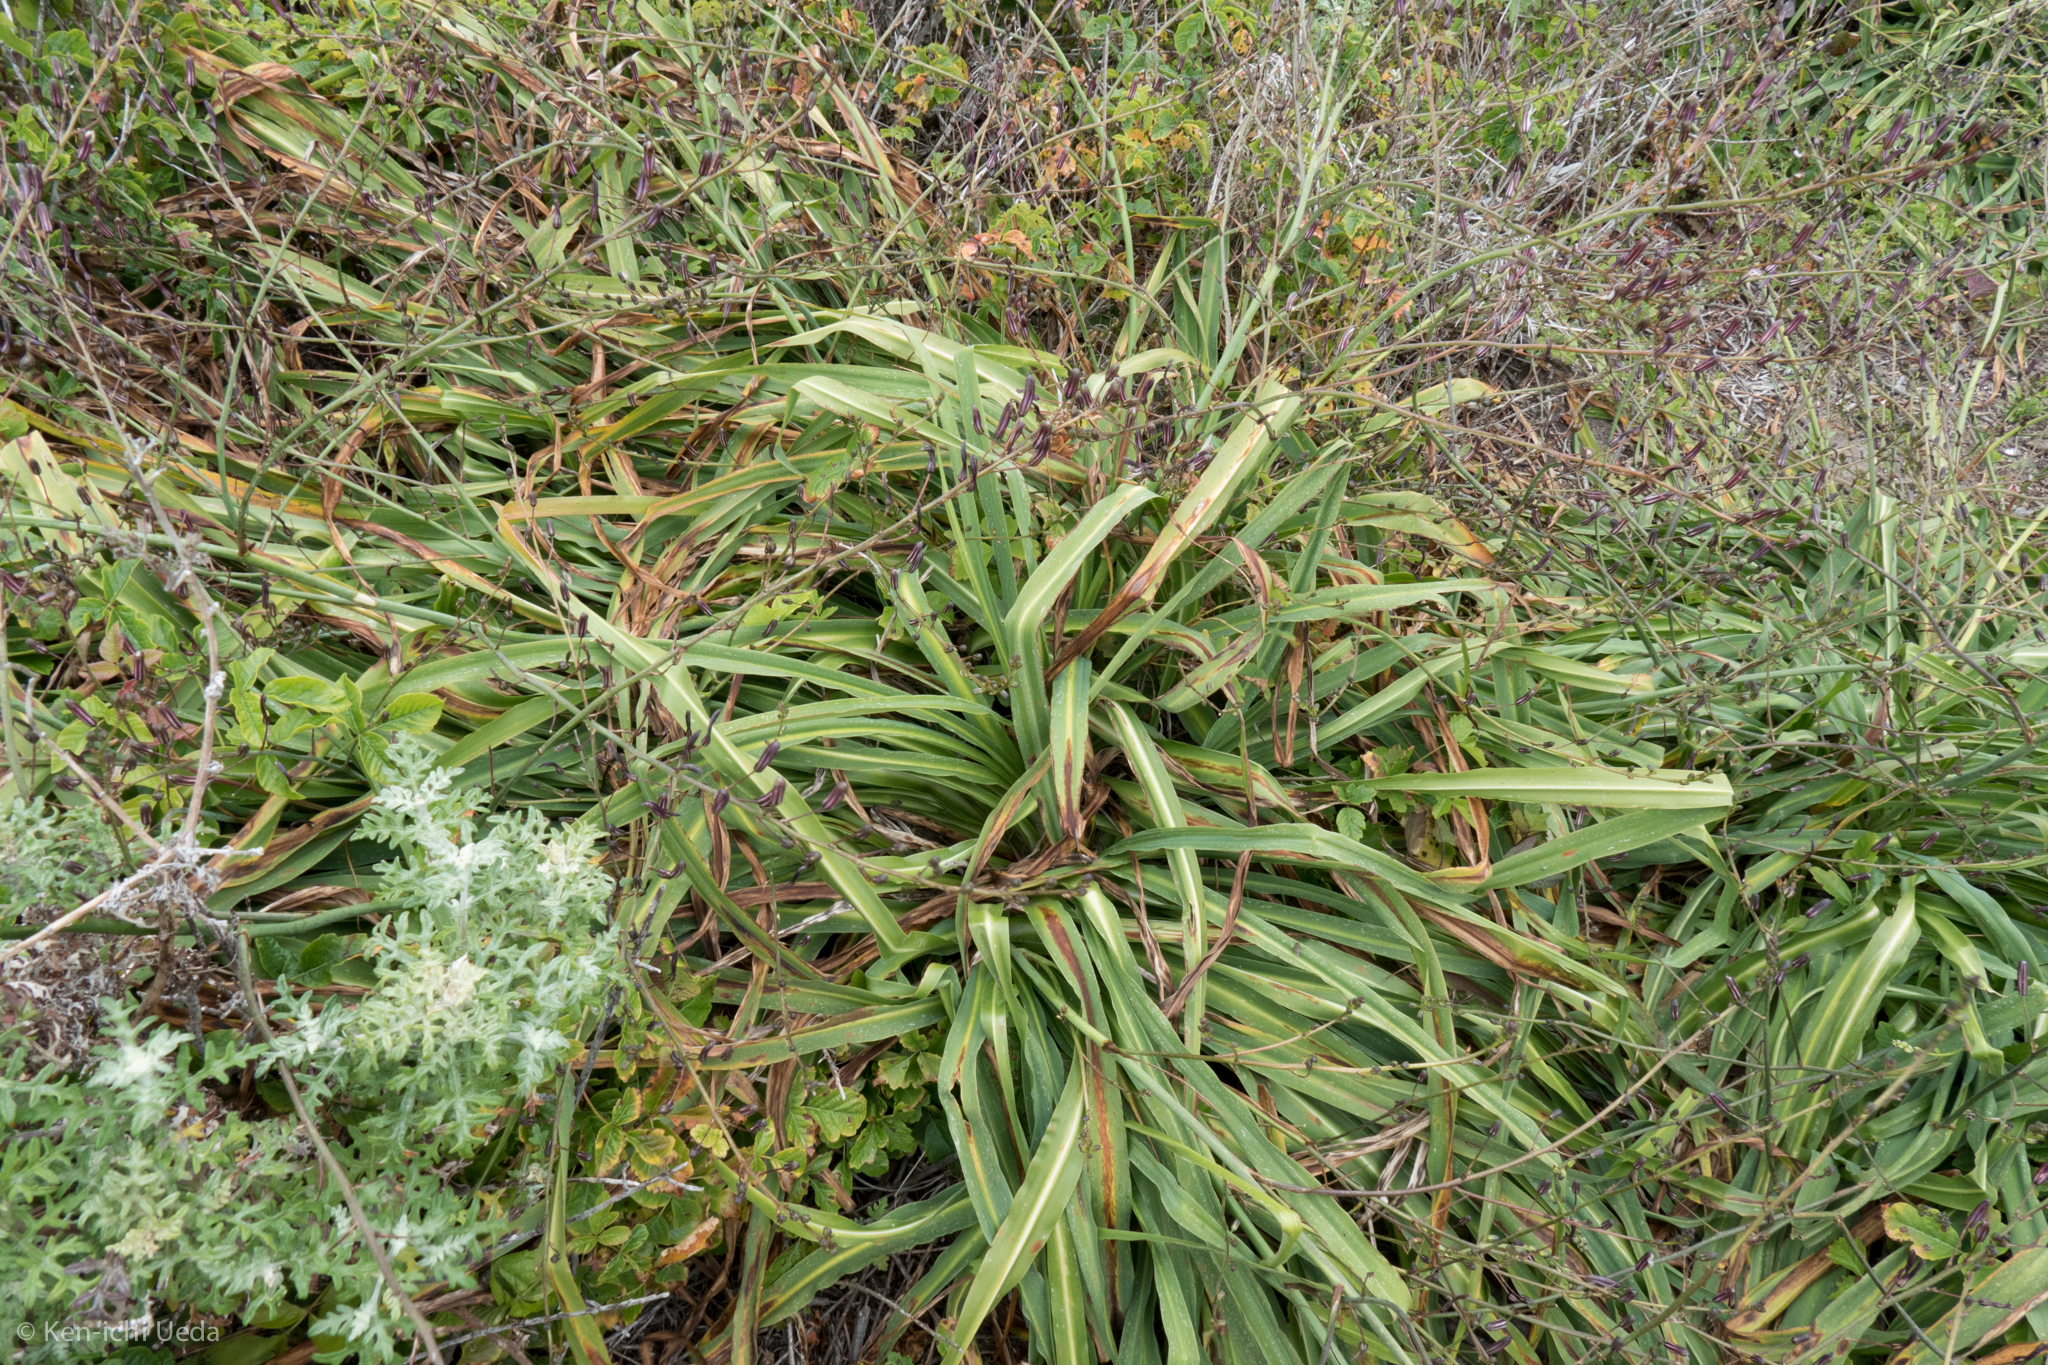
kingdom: Plantae
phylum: Tracheophyta
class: Liliopsida
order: Asparagales
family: Asparagaceae
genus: Chlorogalum
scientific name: Chlorogalum pomeridianum
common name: Amole
